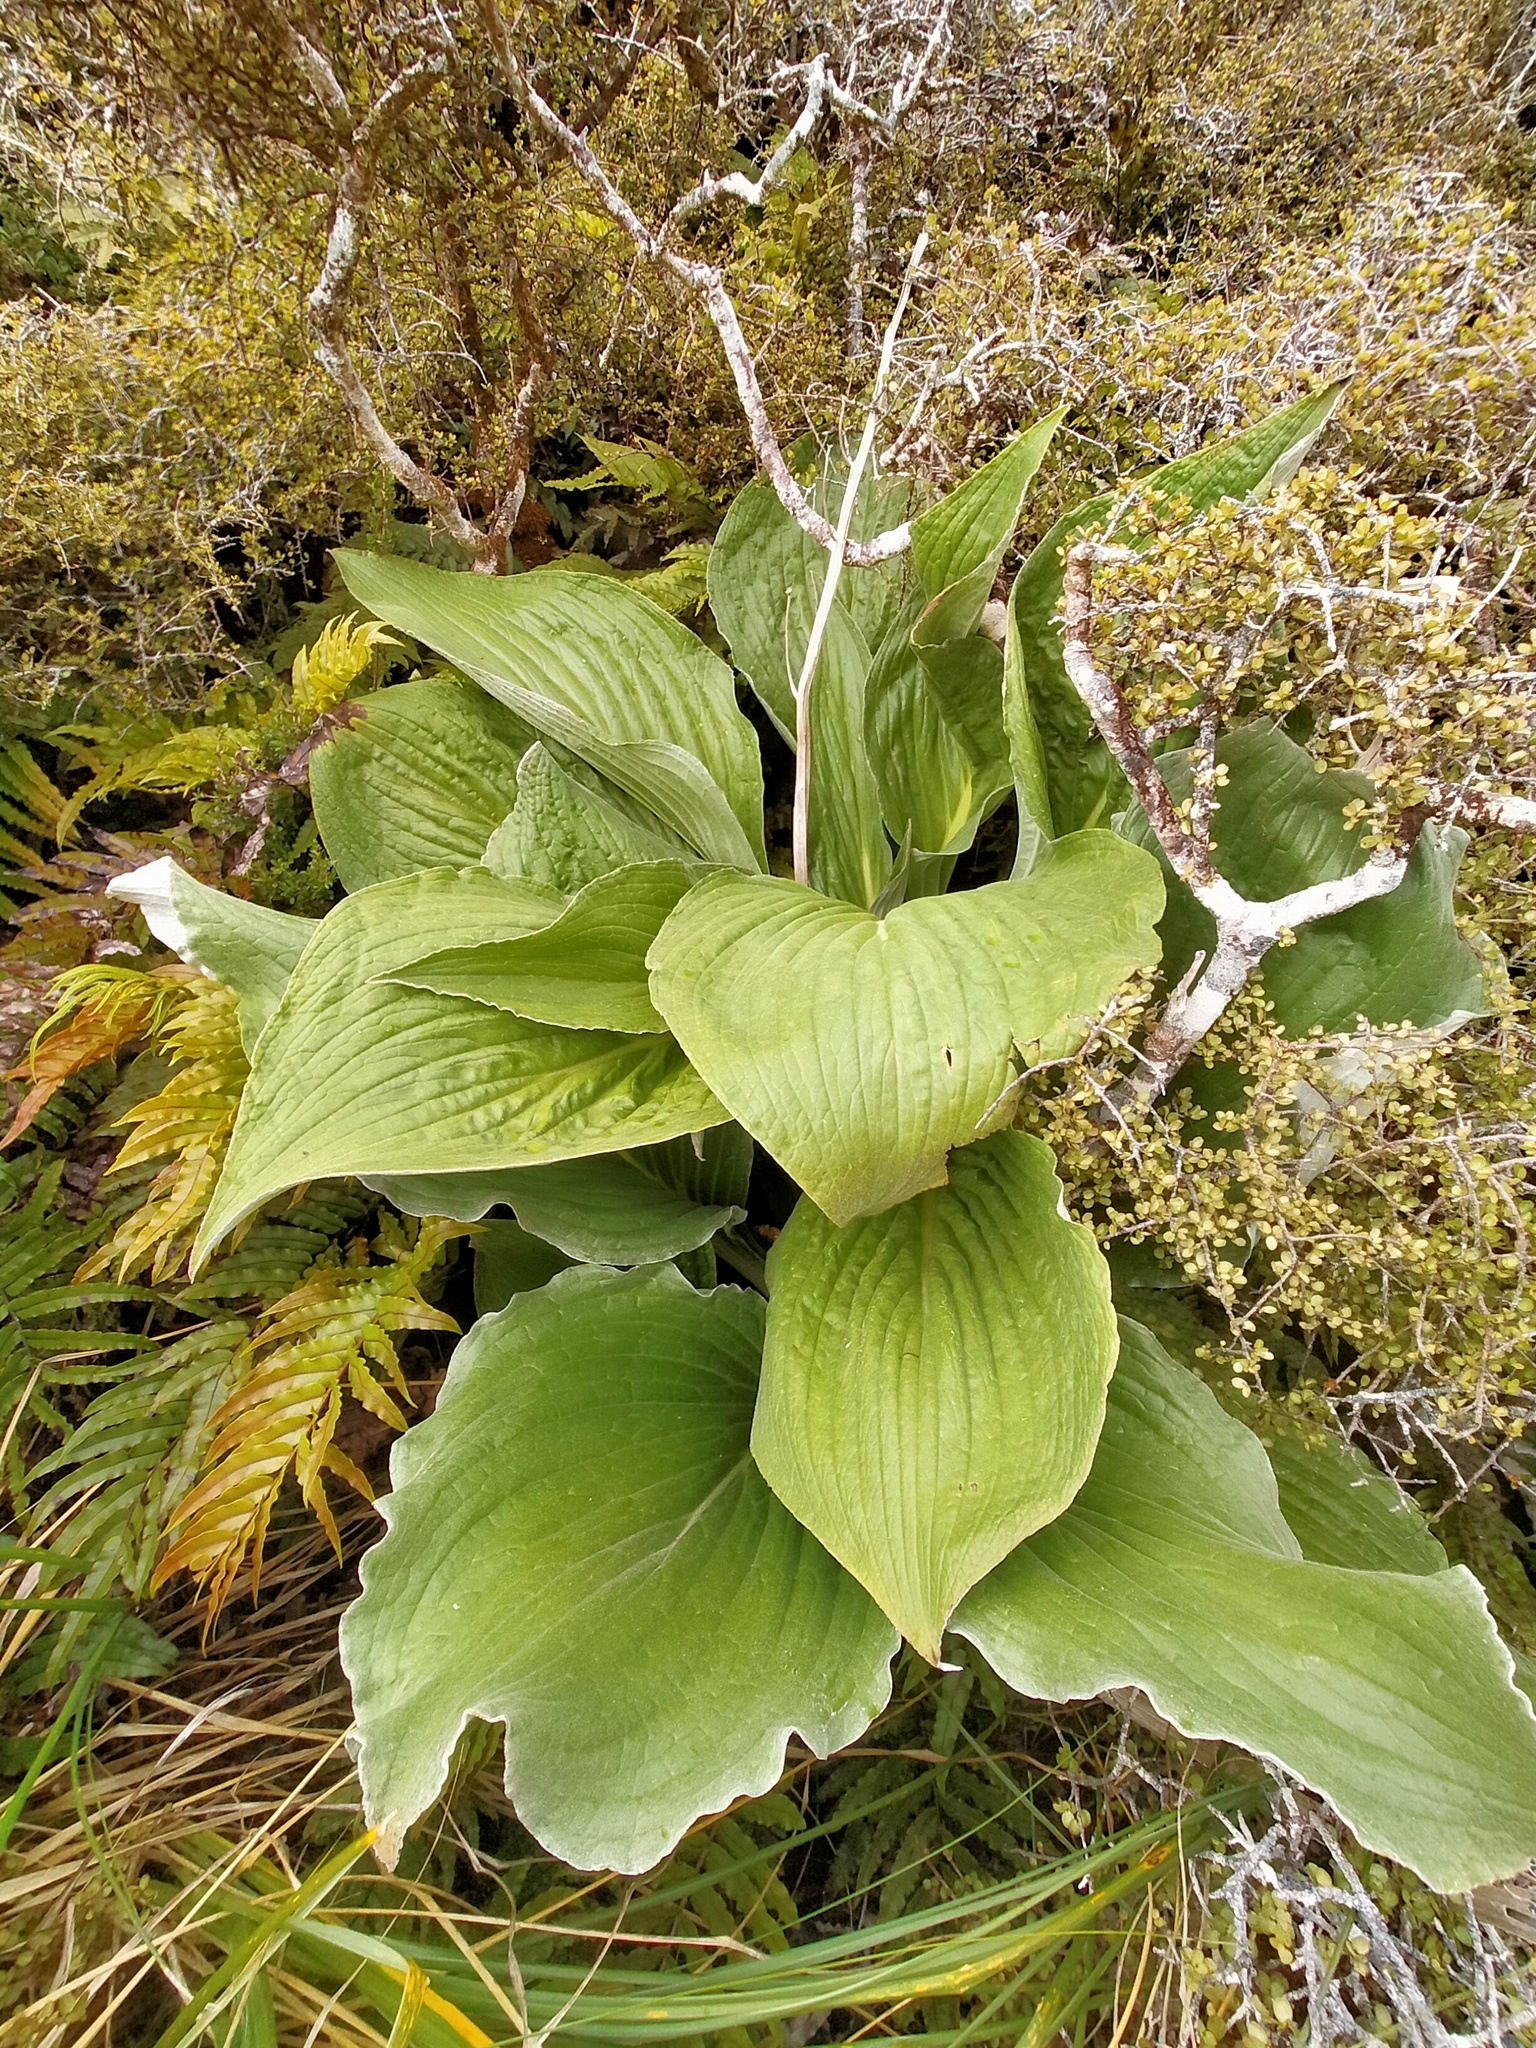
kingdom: Plantae
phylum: Tracheophyta
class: Magnoliopsida
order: Asterales
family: Asteraceae
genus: Pleurophyllum
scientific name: Pleurophyllum criniferum
